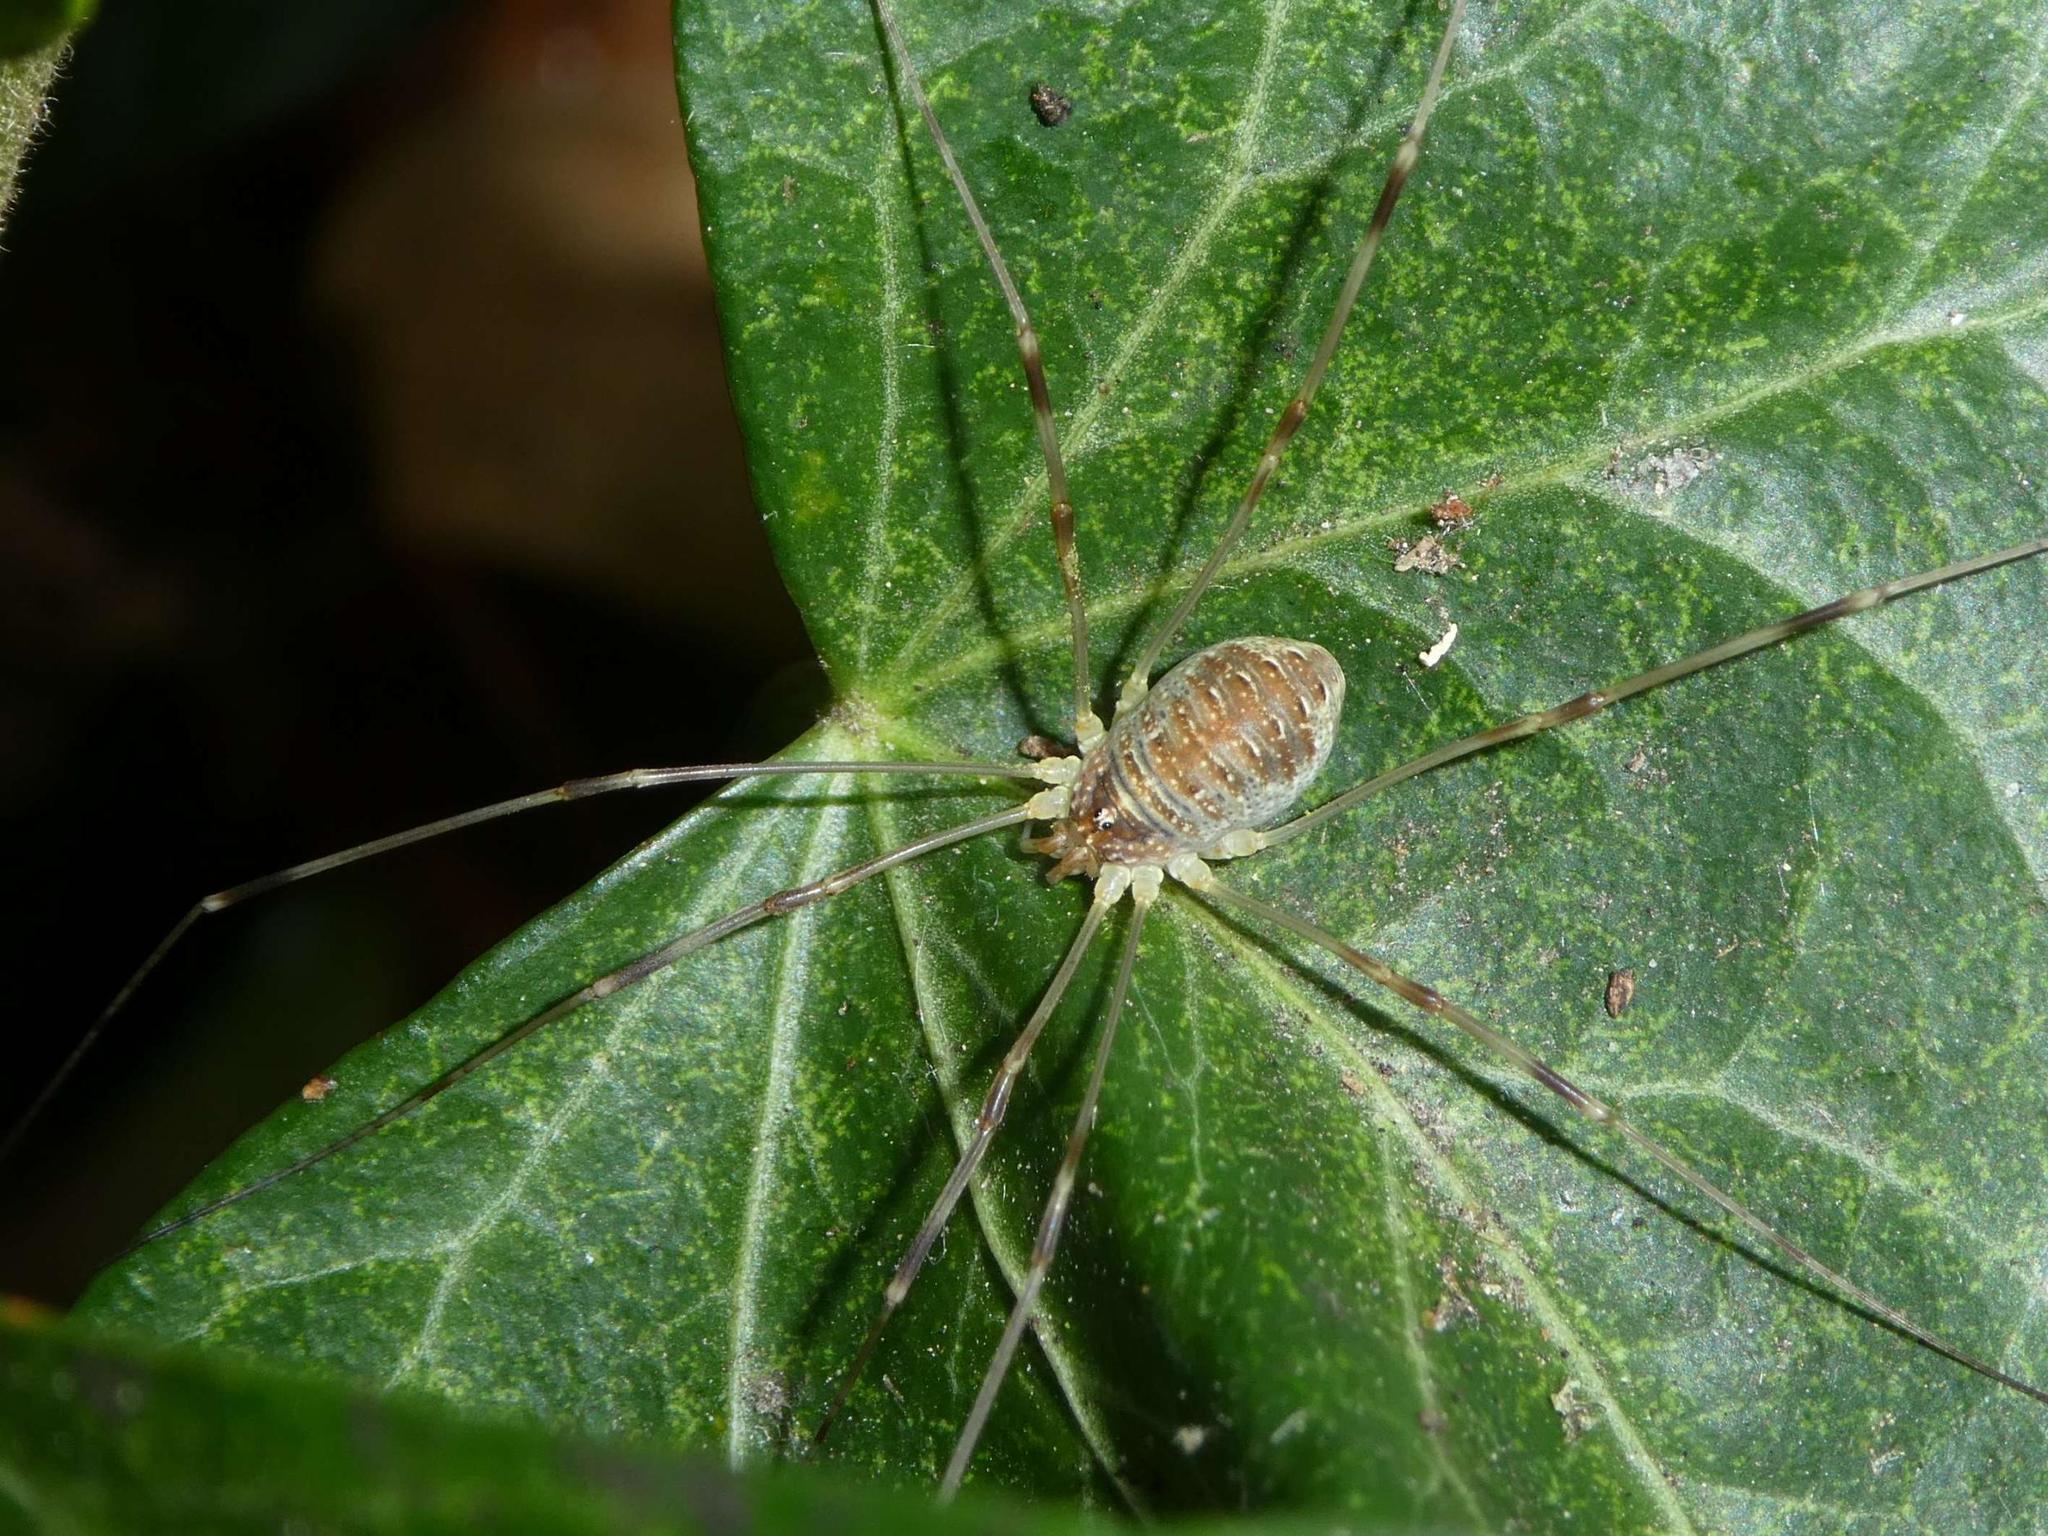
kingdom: Animalia
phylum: Arthropoda
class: Arachnida
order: Opiliones
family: Phalangiidae
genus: Opilio
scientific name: Opilio canestrinii
